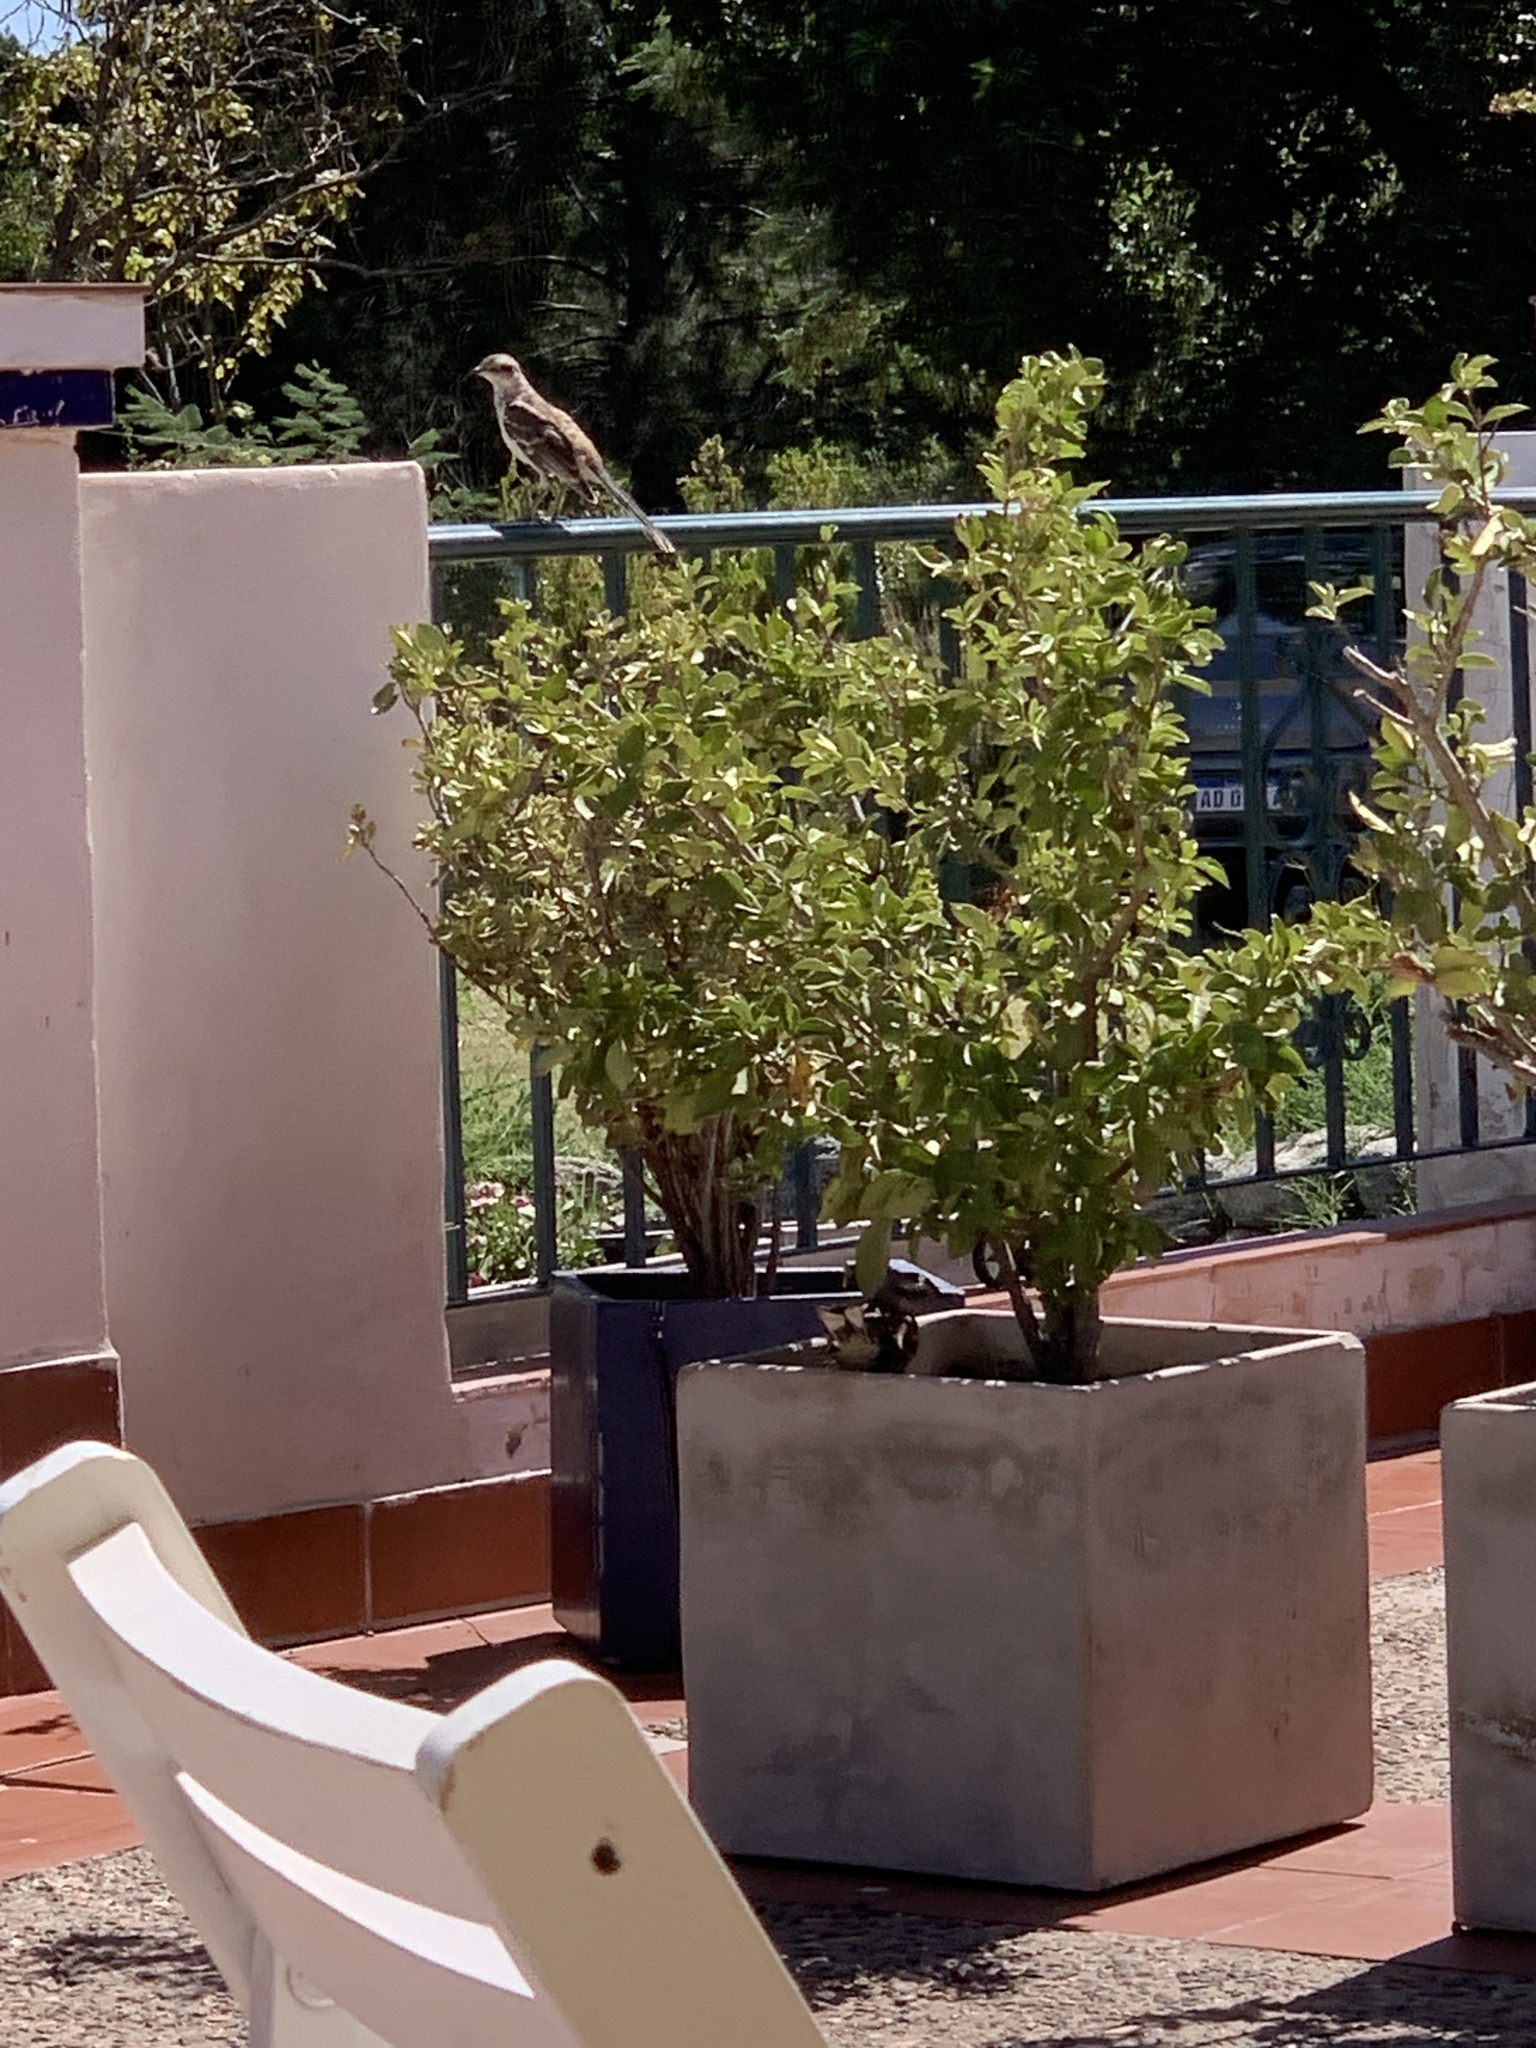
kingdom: Animalia
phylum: Chordata
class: Aves
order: Passeriformes
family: Mimidae
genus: Mimus
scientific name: Mimus saturninus
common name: Chalk-browed mockingbird
